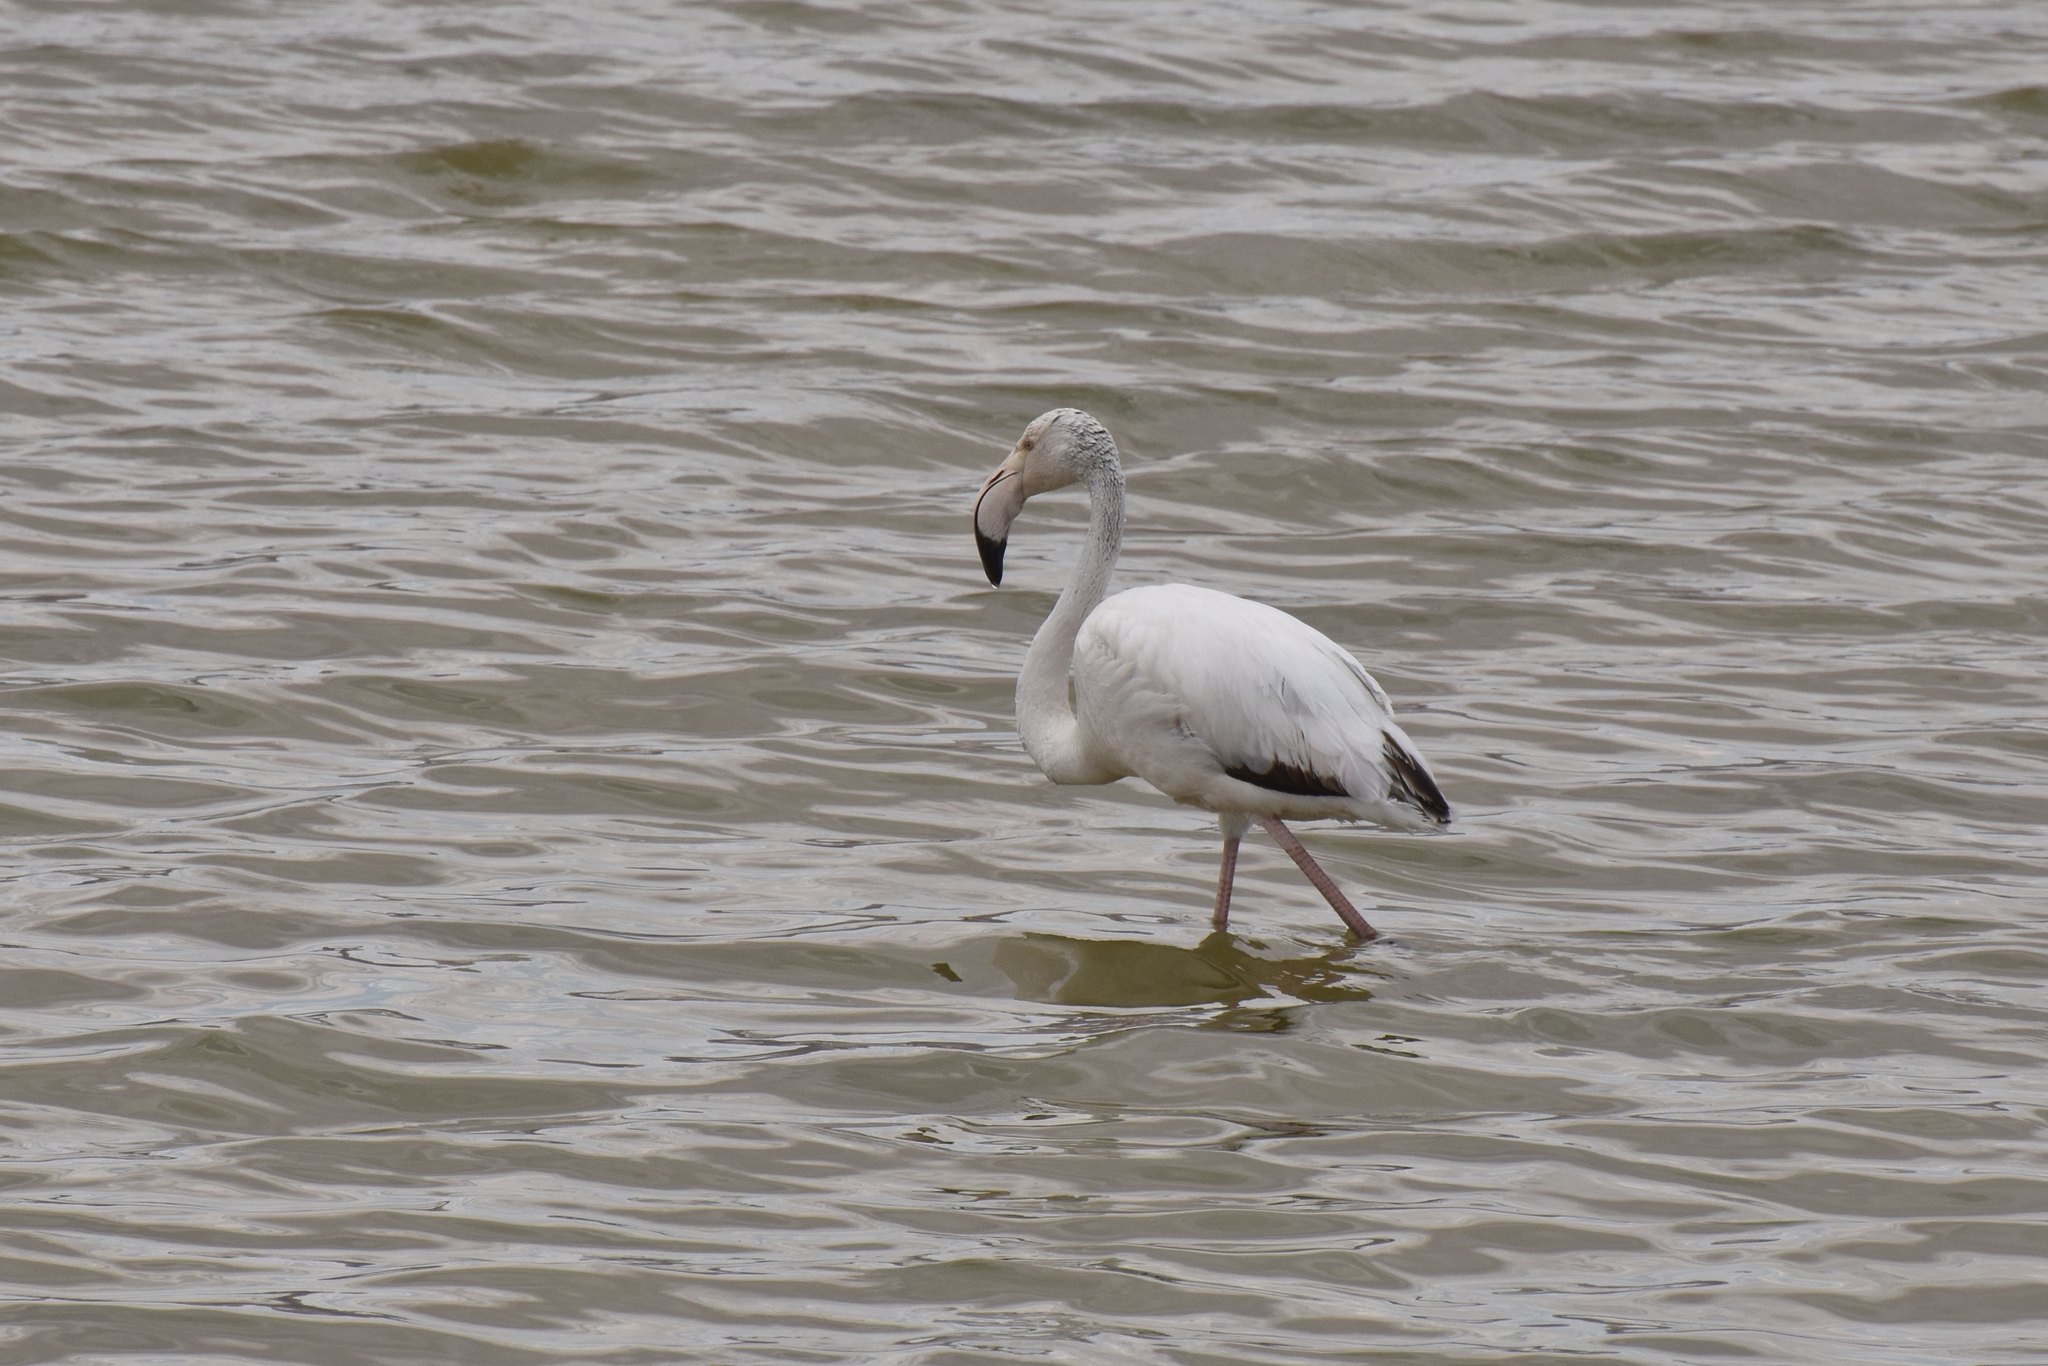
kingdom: Animalia
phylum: Chordata
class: Aves
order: Phoenicopteriformes
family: Phoenicopteridae
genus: Phoenicopterus
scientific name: Phoenicopterus roseus
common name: Greater flamingo
